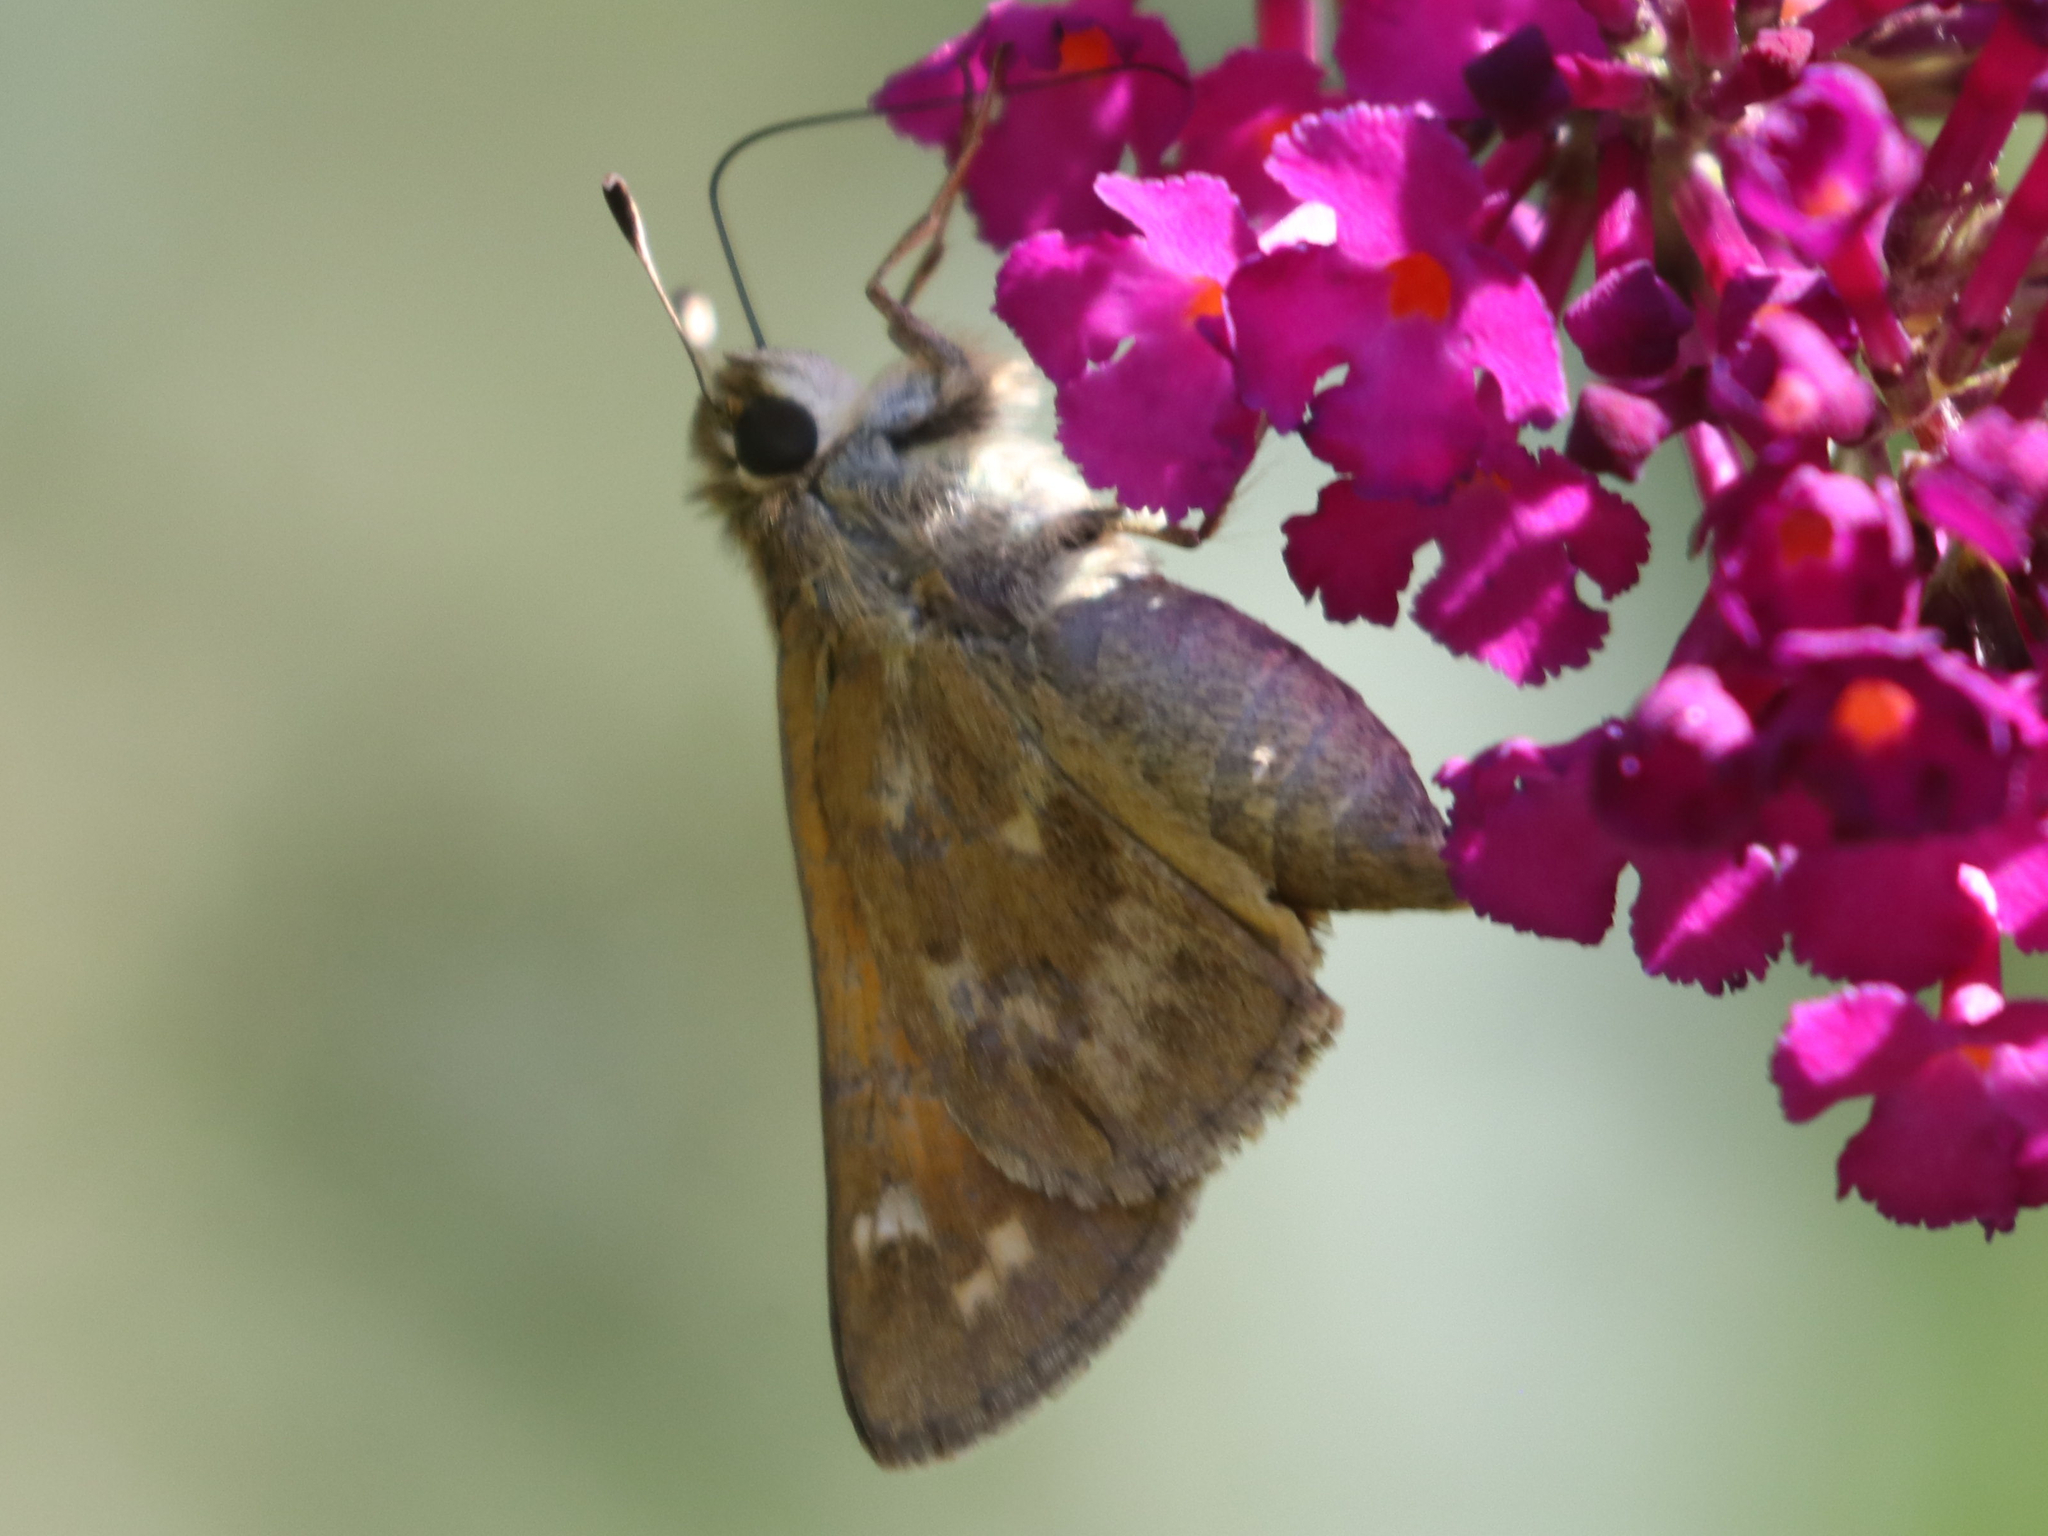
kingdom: Animalia
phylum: Arthropoda
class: Insecta
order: Lepidoptera
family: Hesperiidae
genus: Atalopedes
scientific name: Atalopedes
